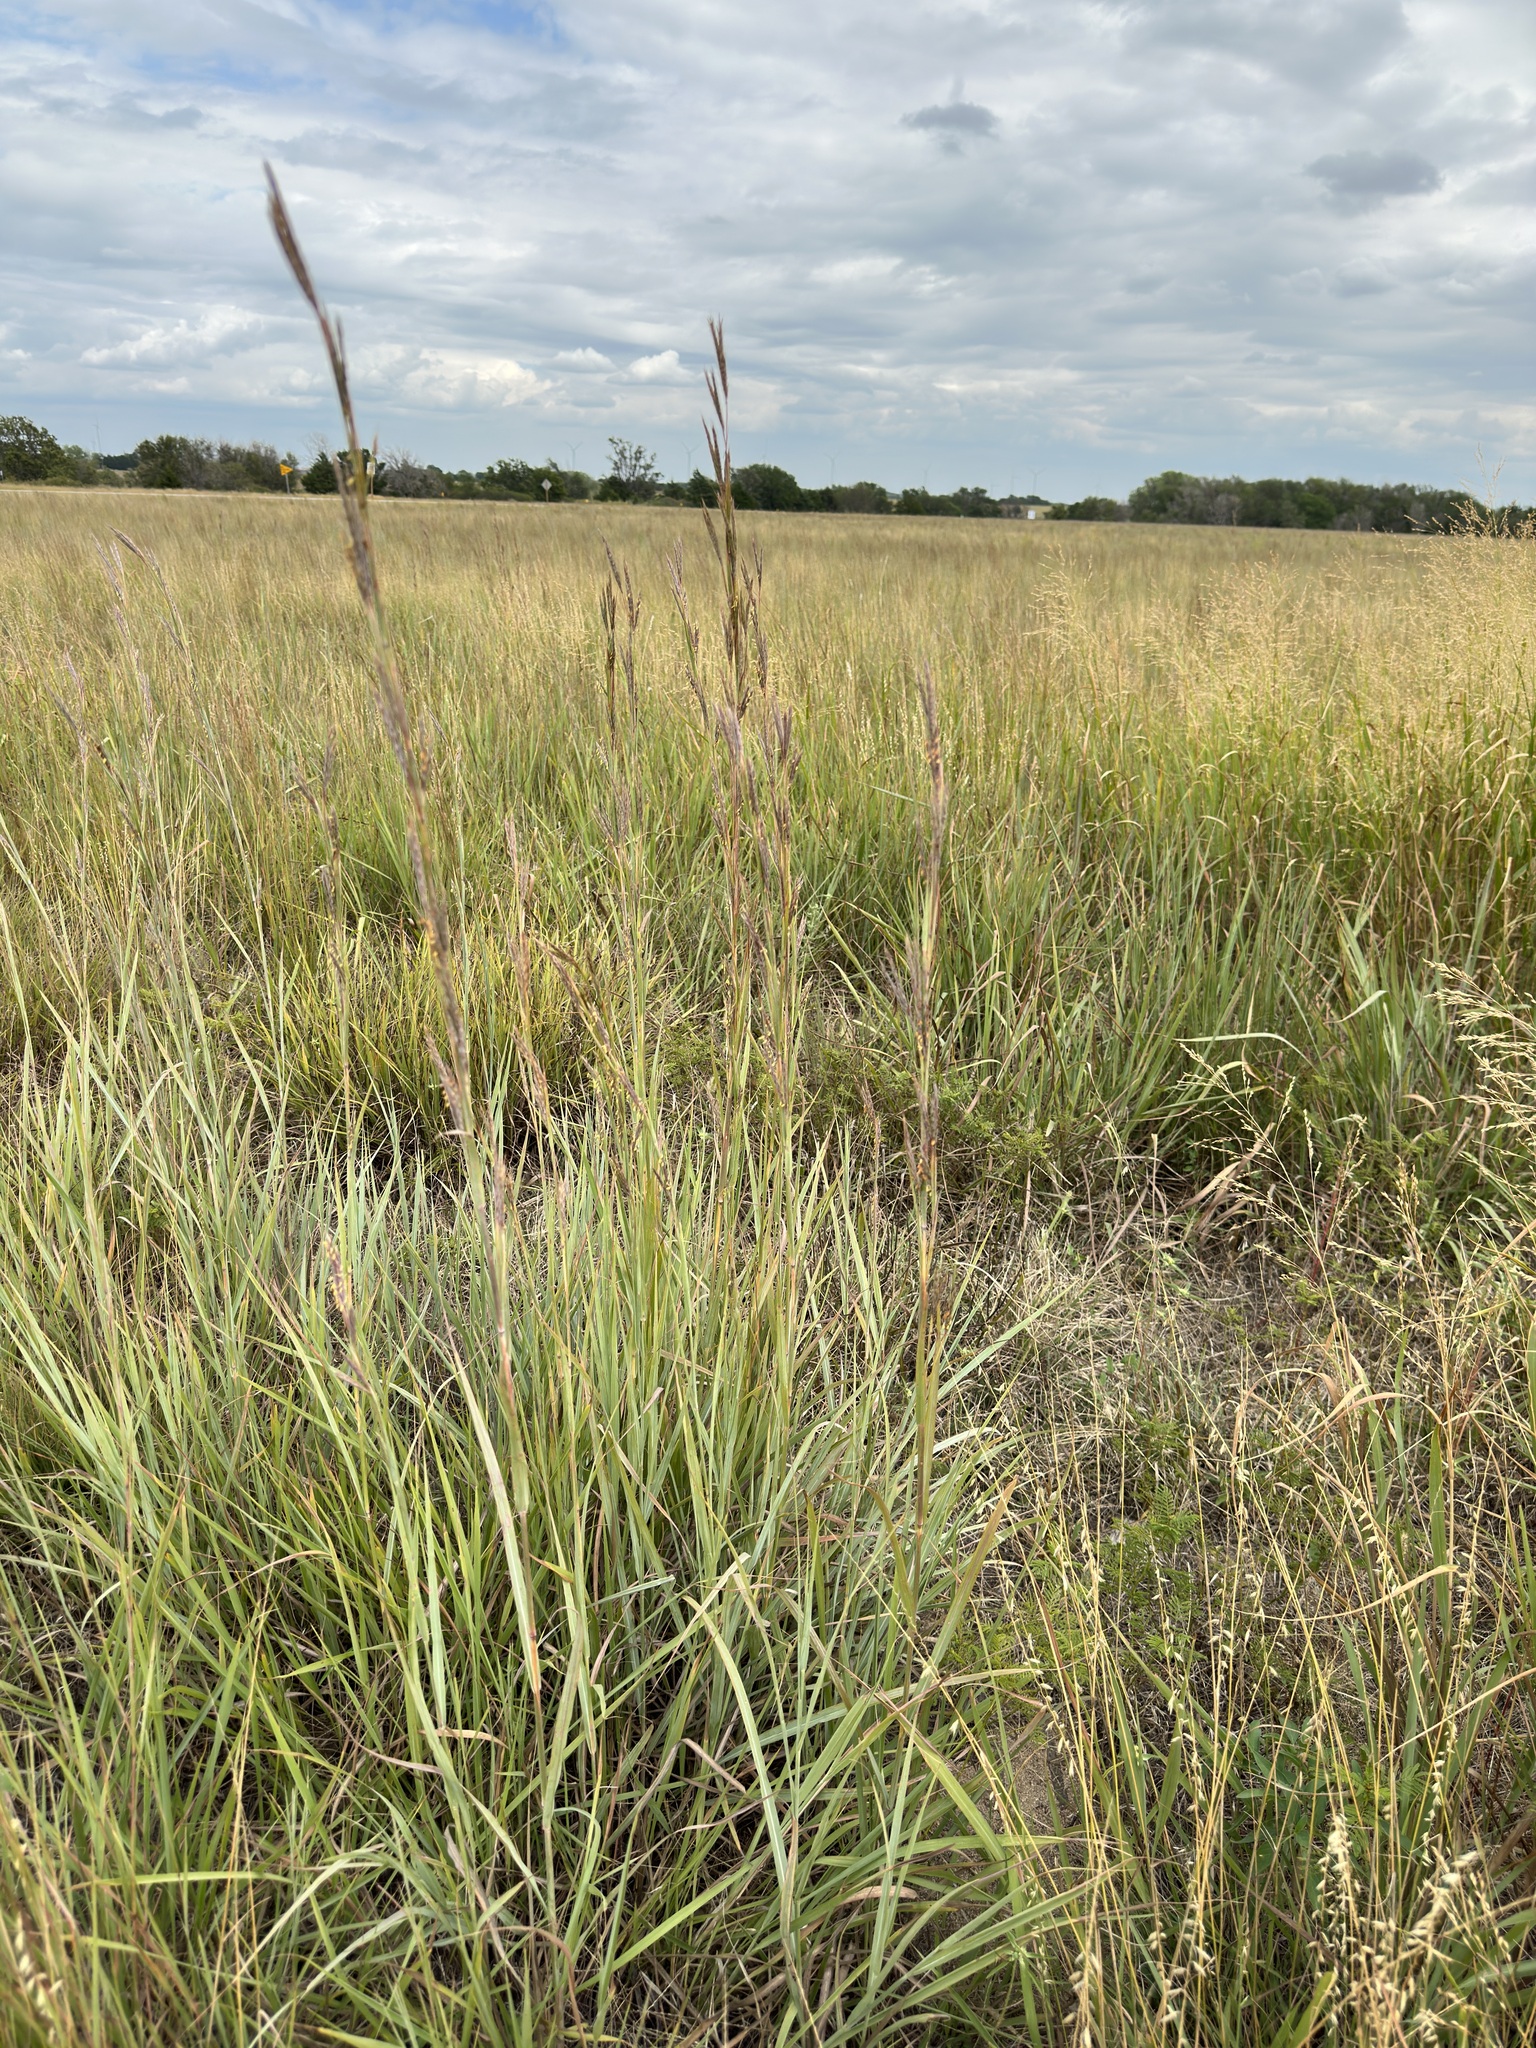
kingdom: Plantae
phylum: Tracheophyta
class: Liliopsida
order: Poales
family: Poaceae
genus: Andropogon
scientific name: Andropogon gerardi
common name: Big bluestem
